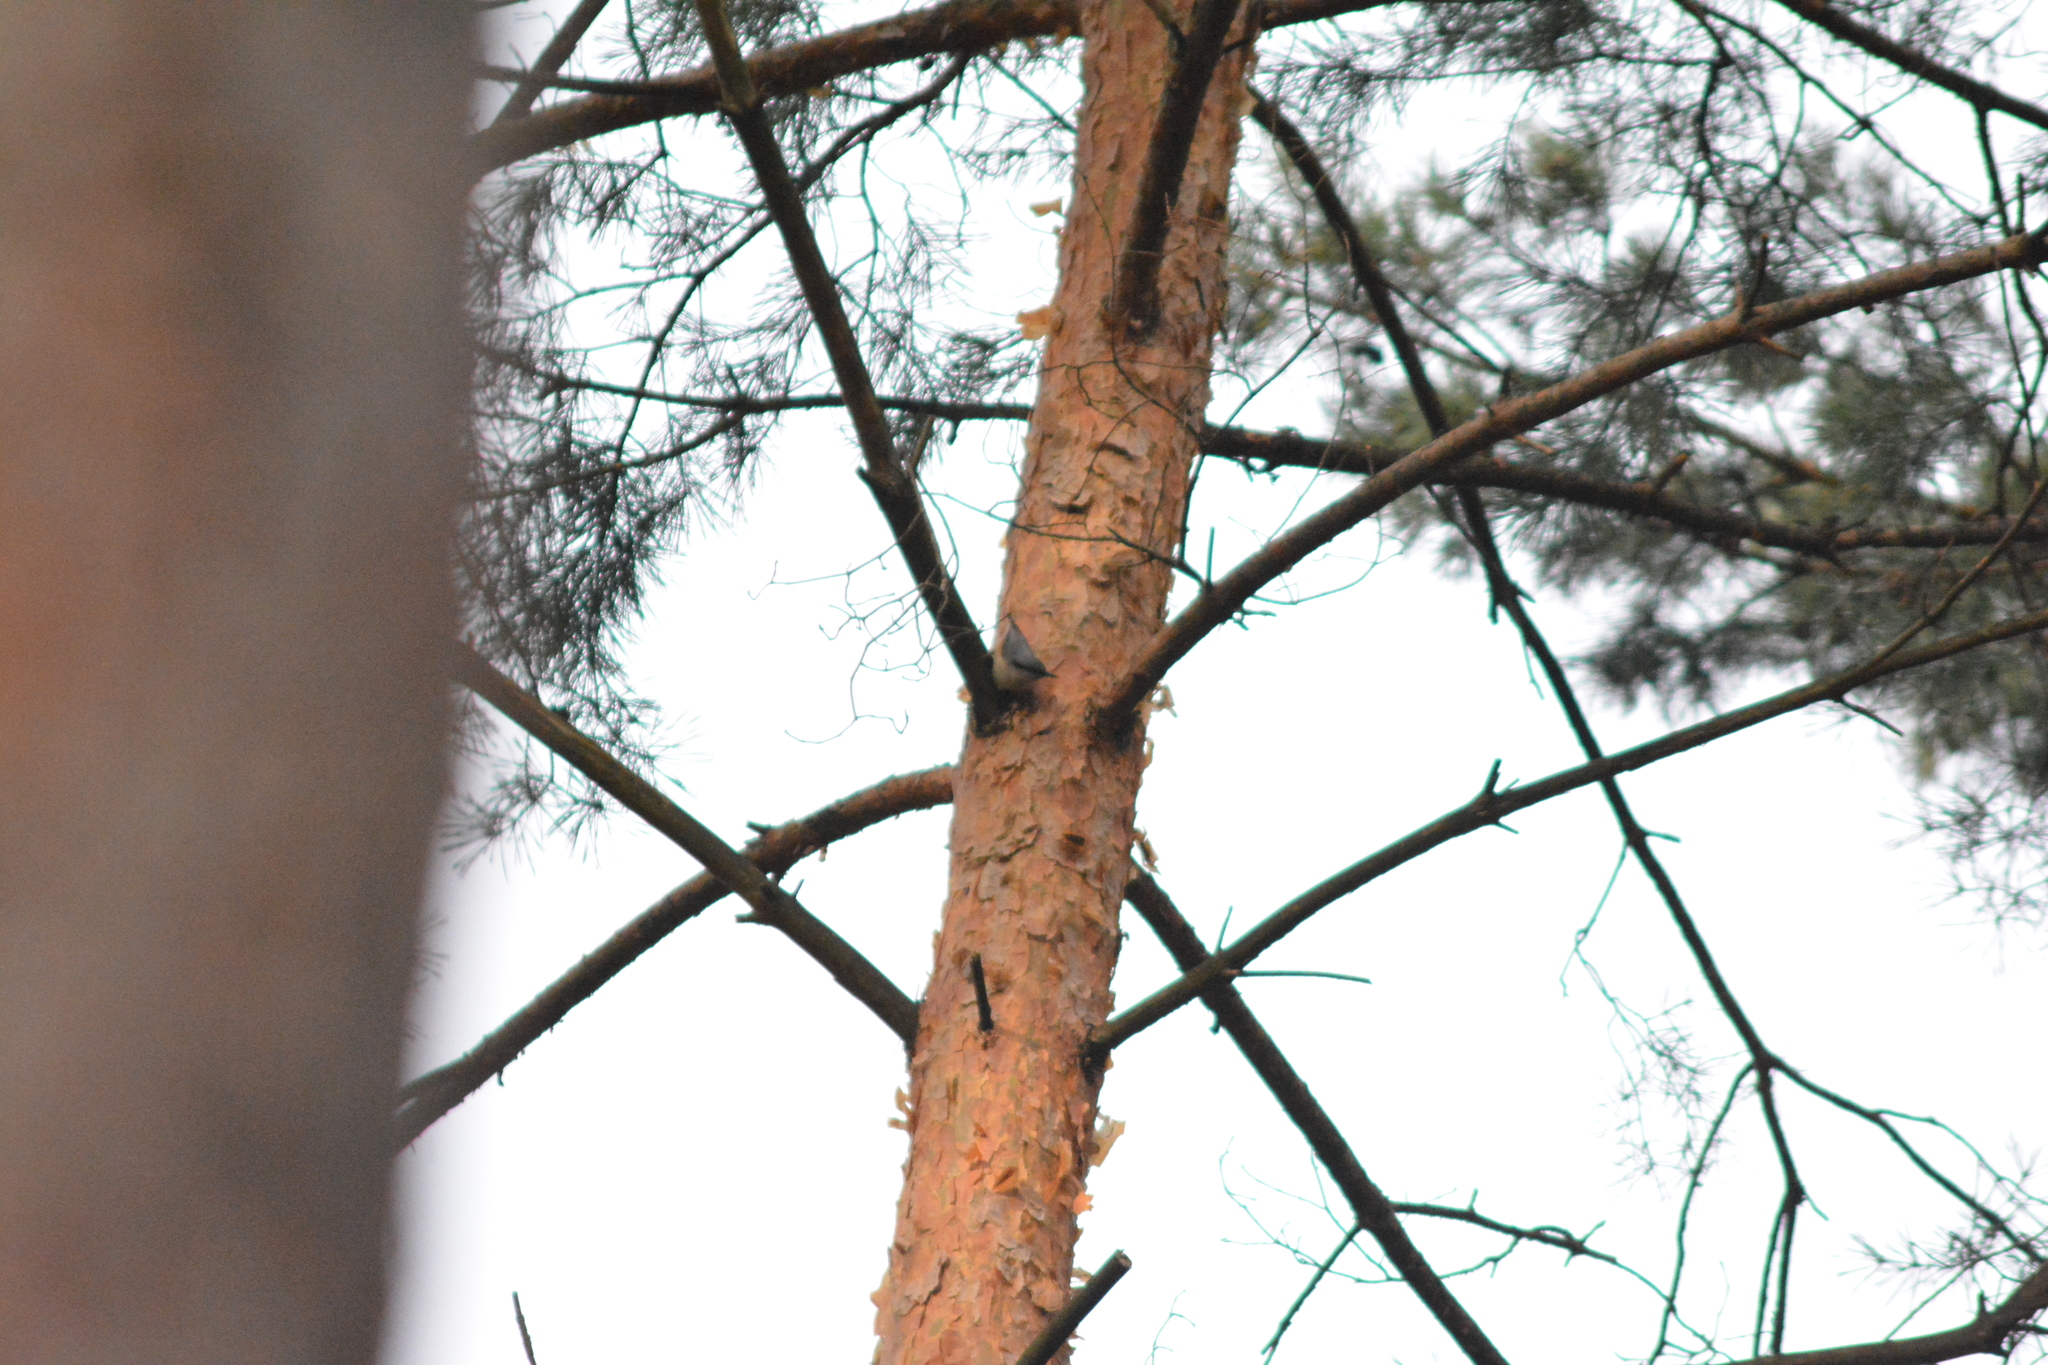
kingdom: Animalia
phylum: Chordata
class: Aves
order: Passeriformes
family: Sittidae
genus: Sitta
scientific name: Sitta europaea
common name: Eurasian nuthatch
